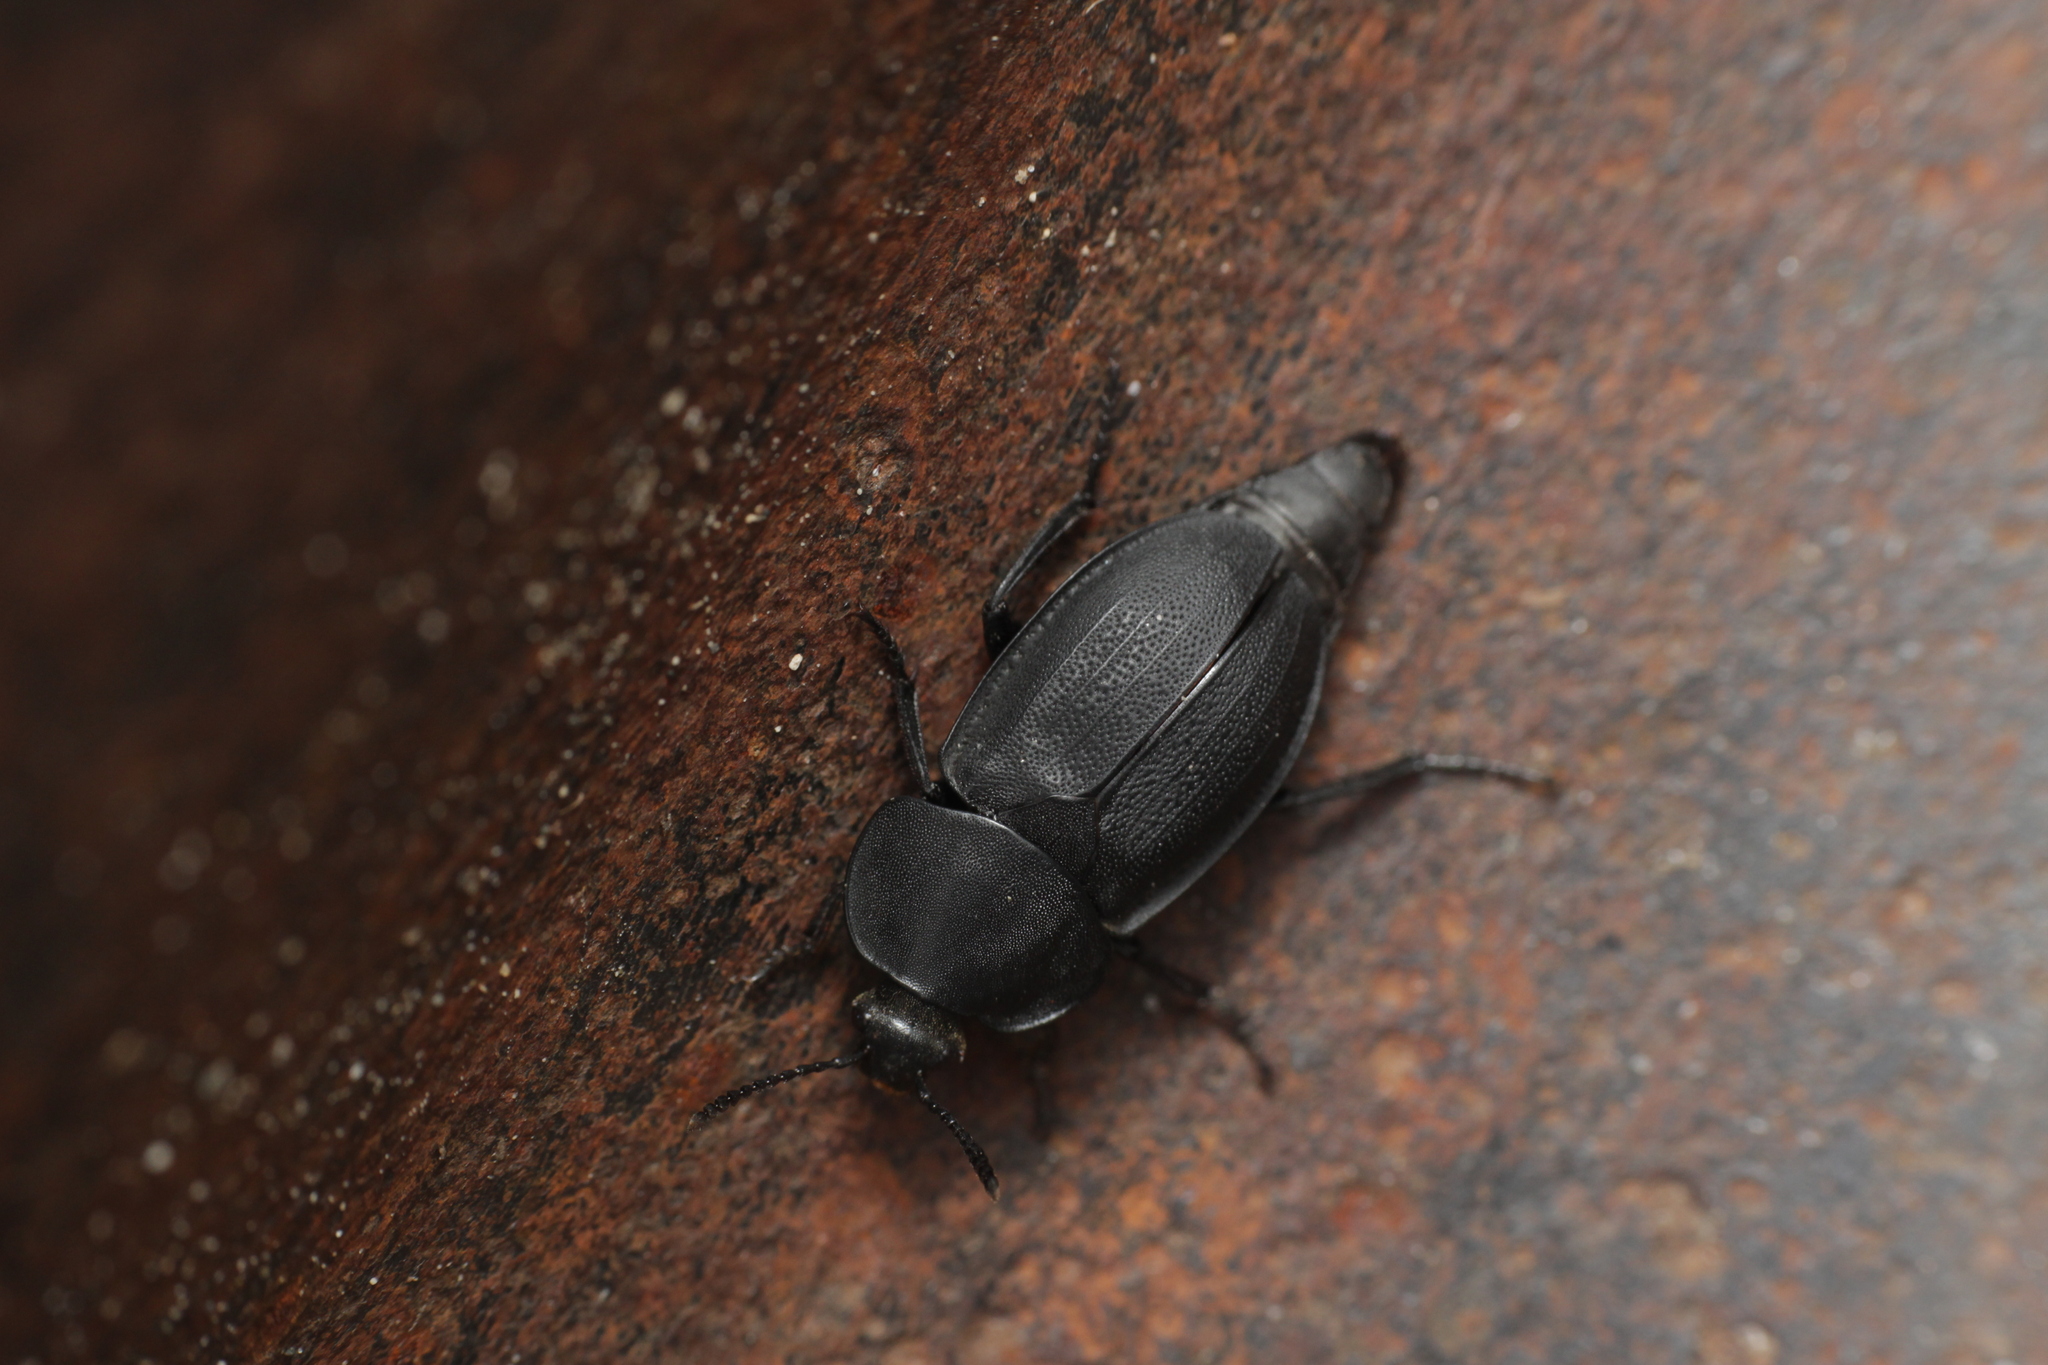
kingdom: Animalia
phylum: Arthropoda
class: Insecta
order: Coleoptera
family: Staphylinidae
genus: Silpha
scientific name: Silpha obscura
